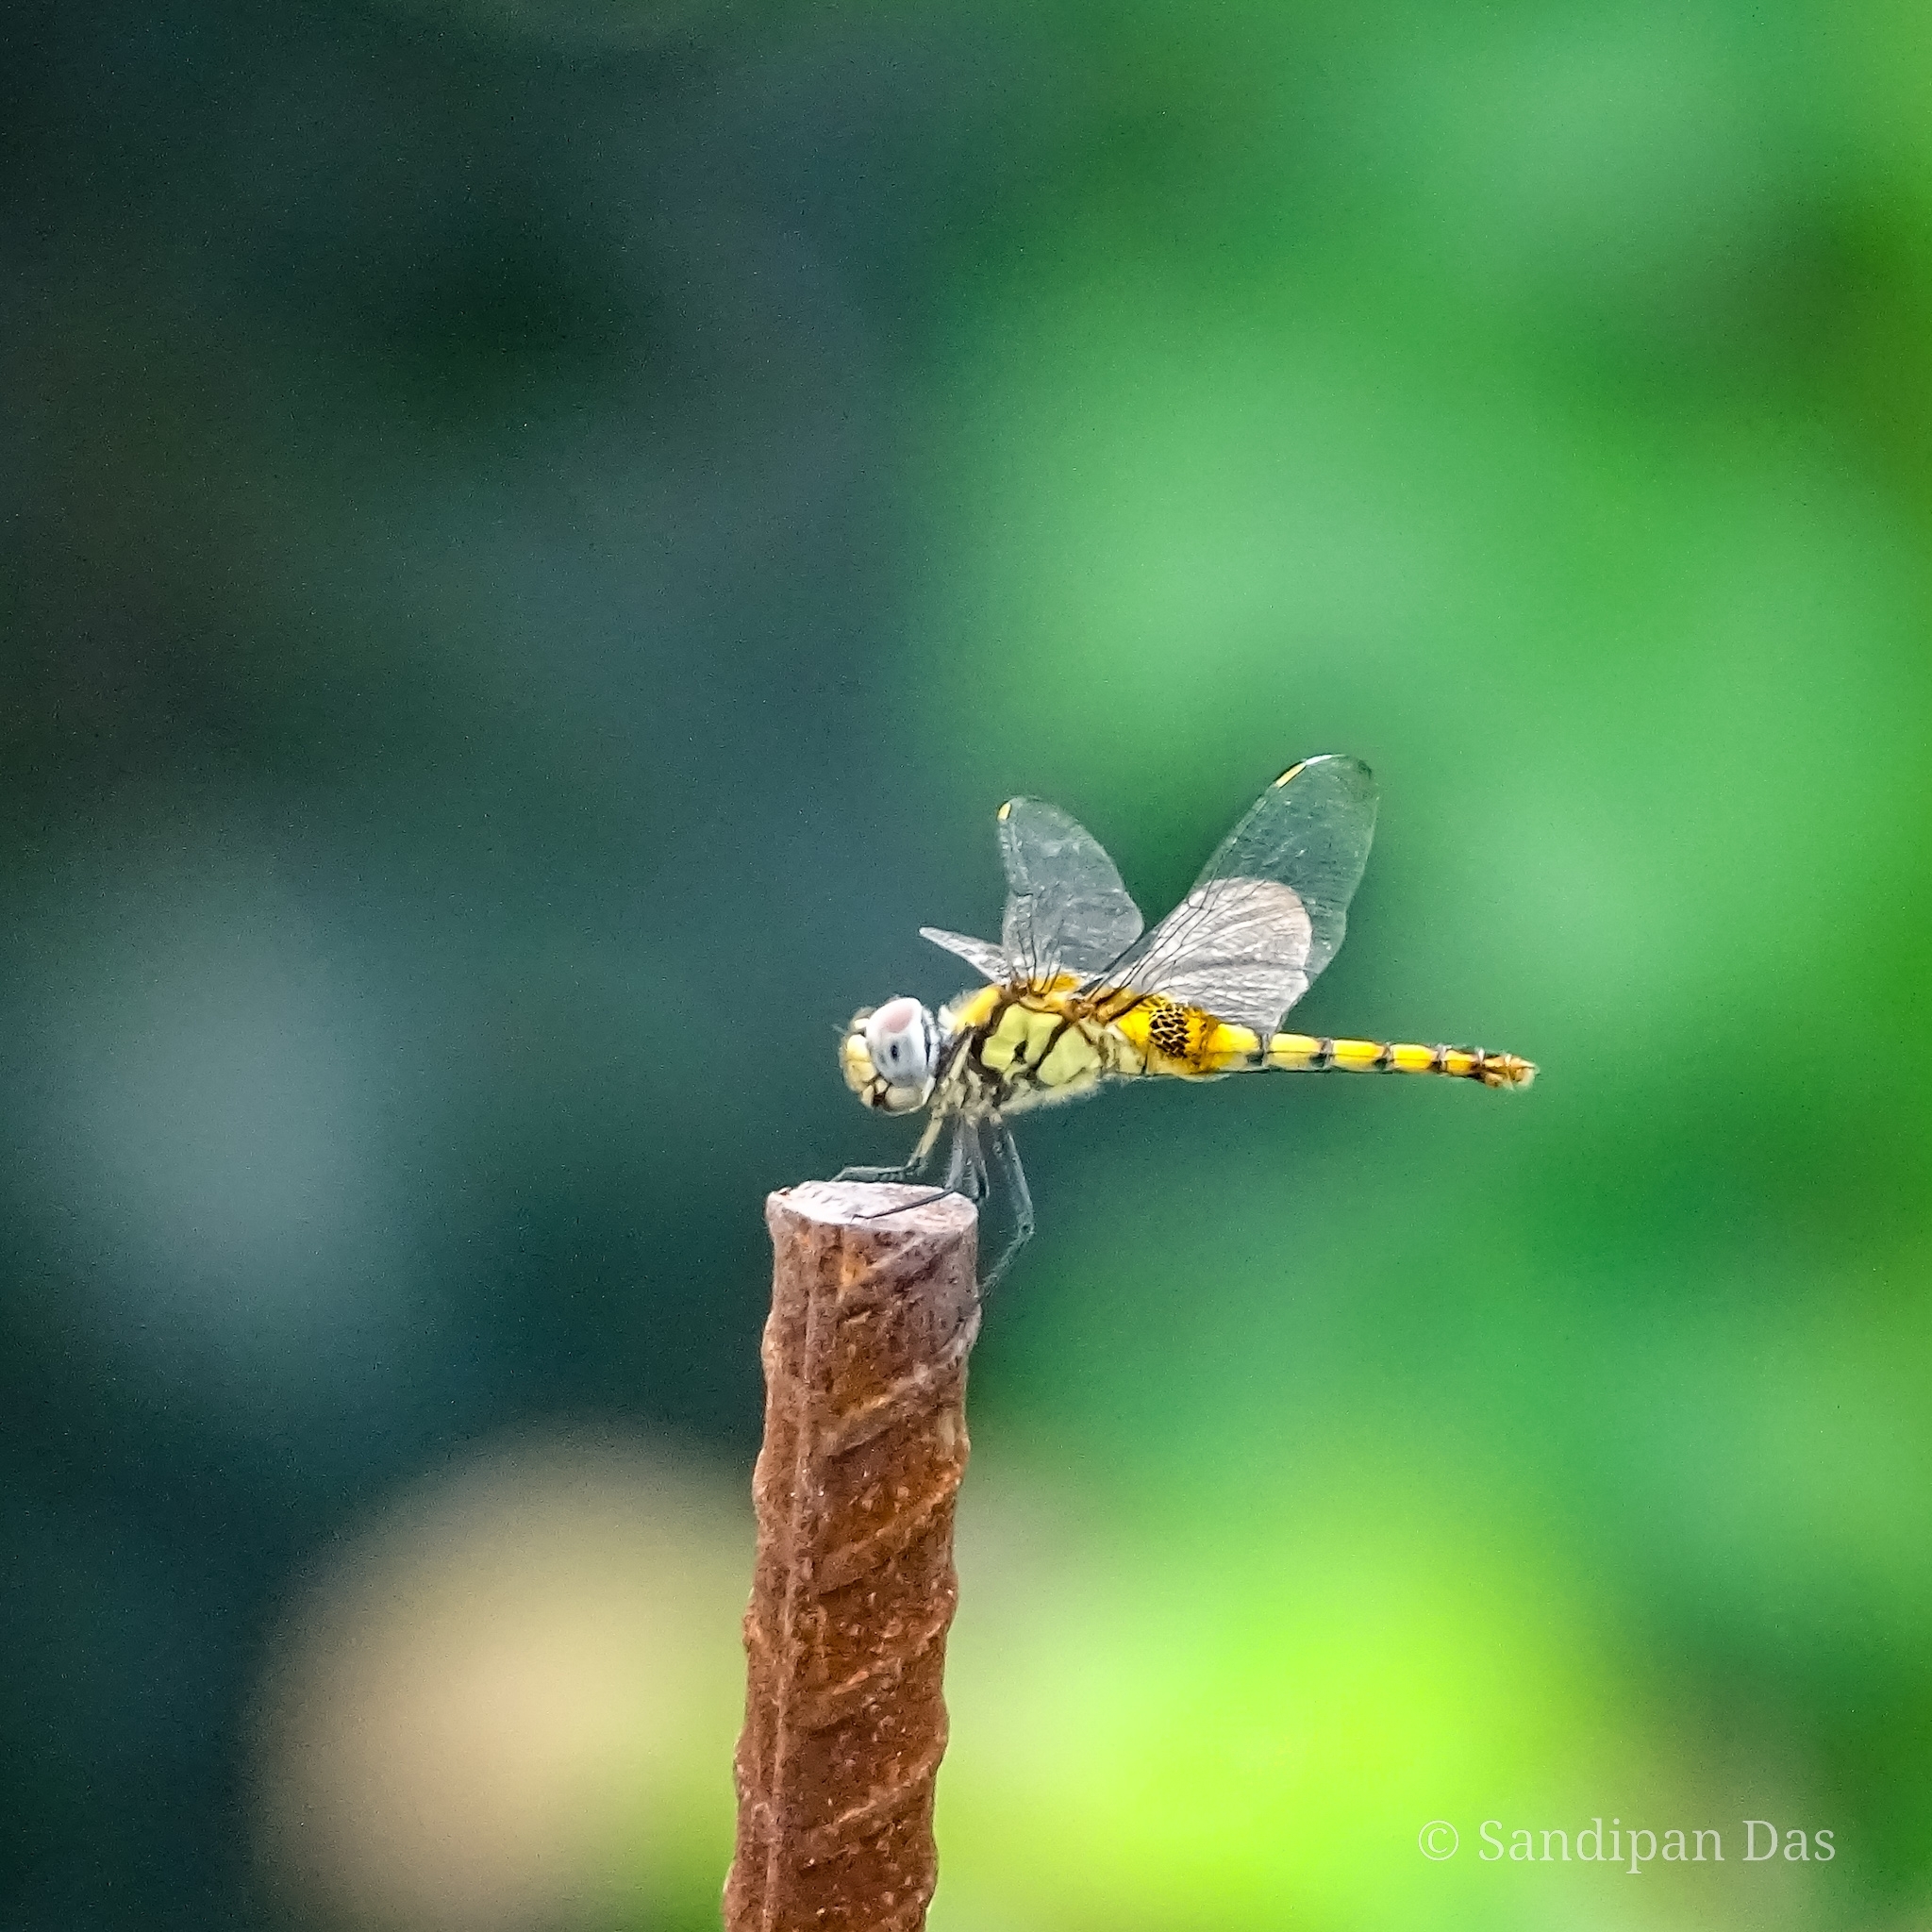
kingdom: Animalia
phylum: Arthropoda
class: Insecta
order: Odonata
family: Libellulidae
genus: Urothemis
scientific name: Urothemis signata
